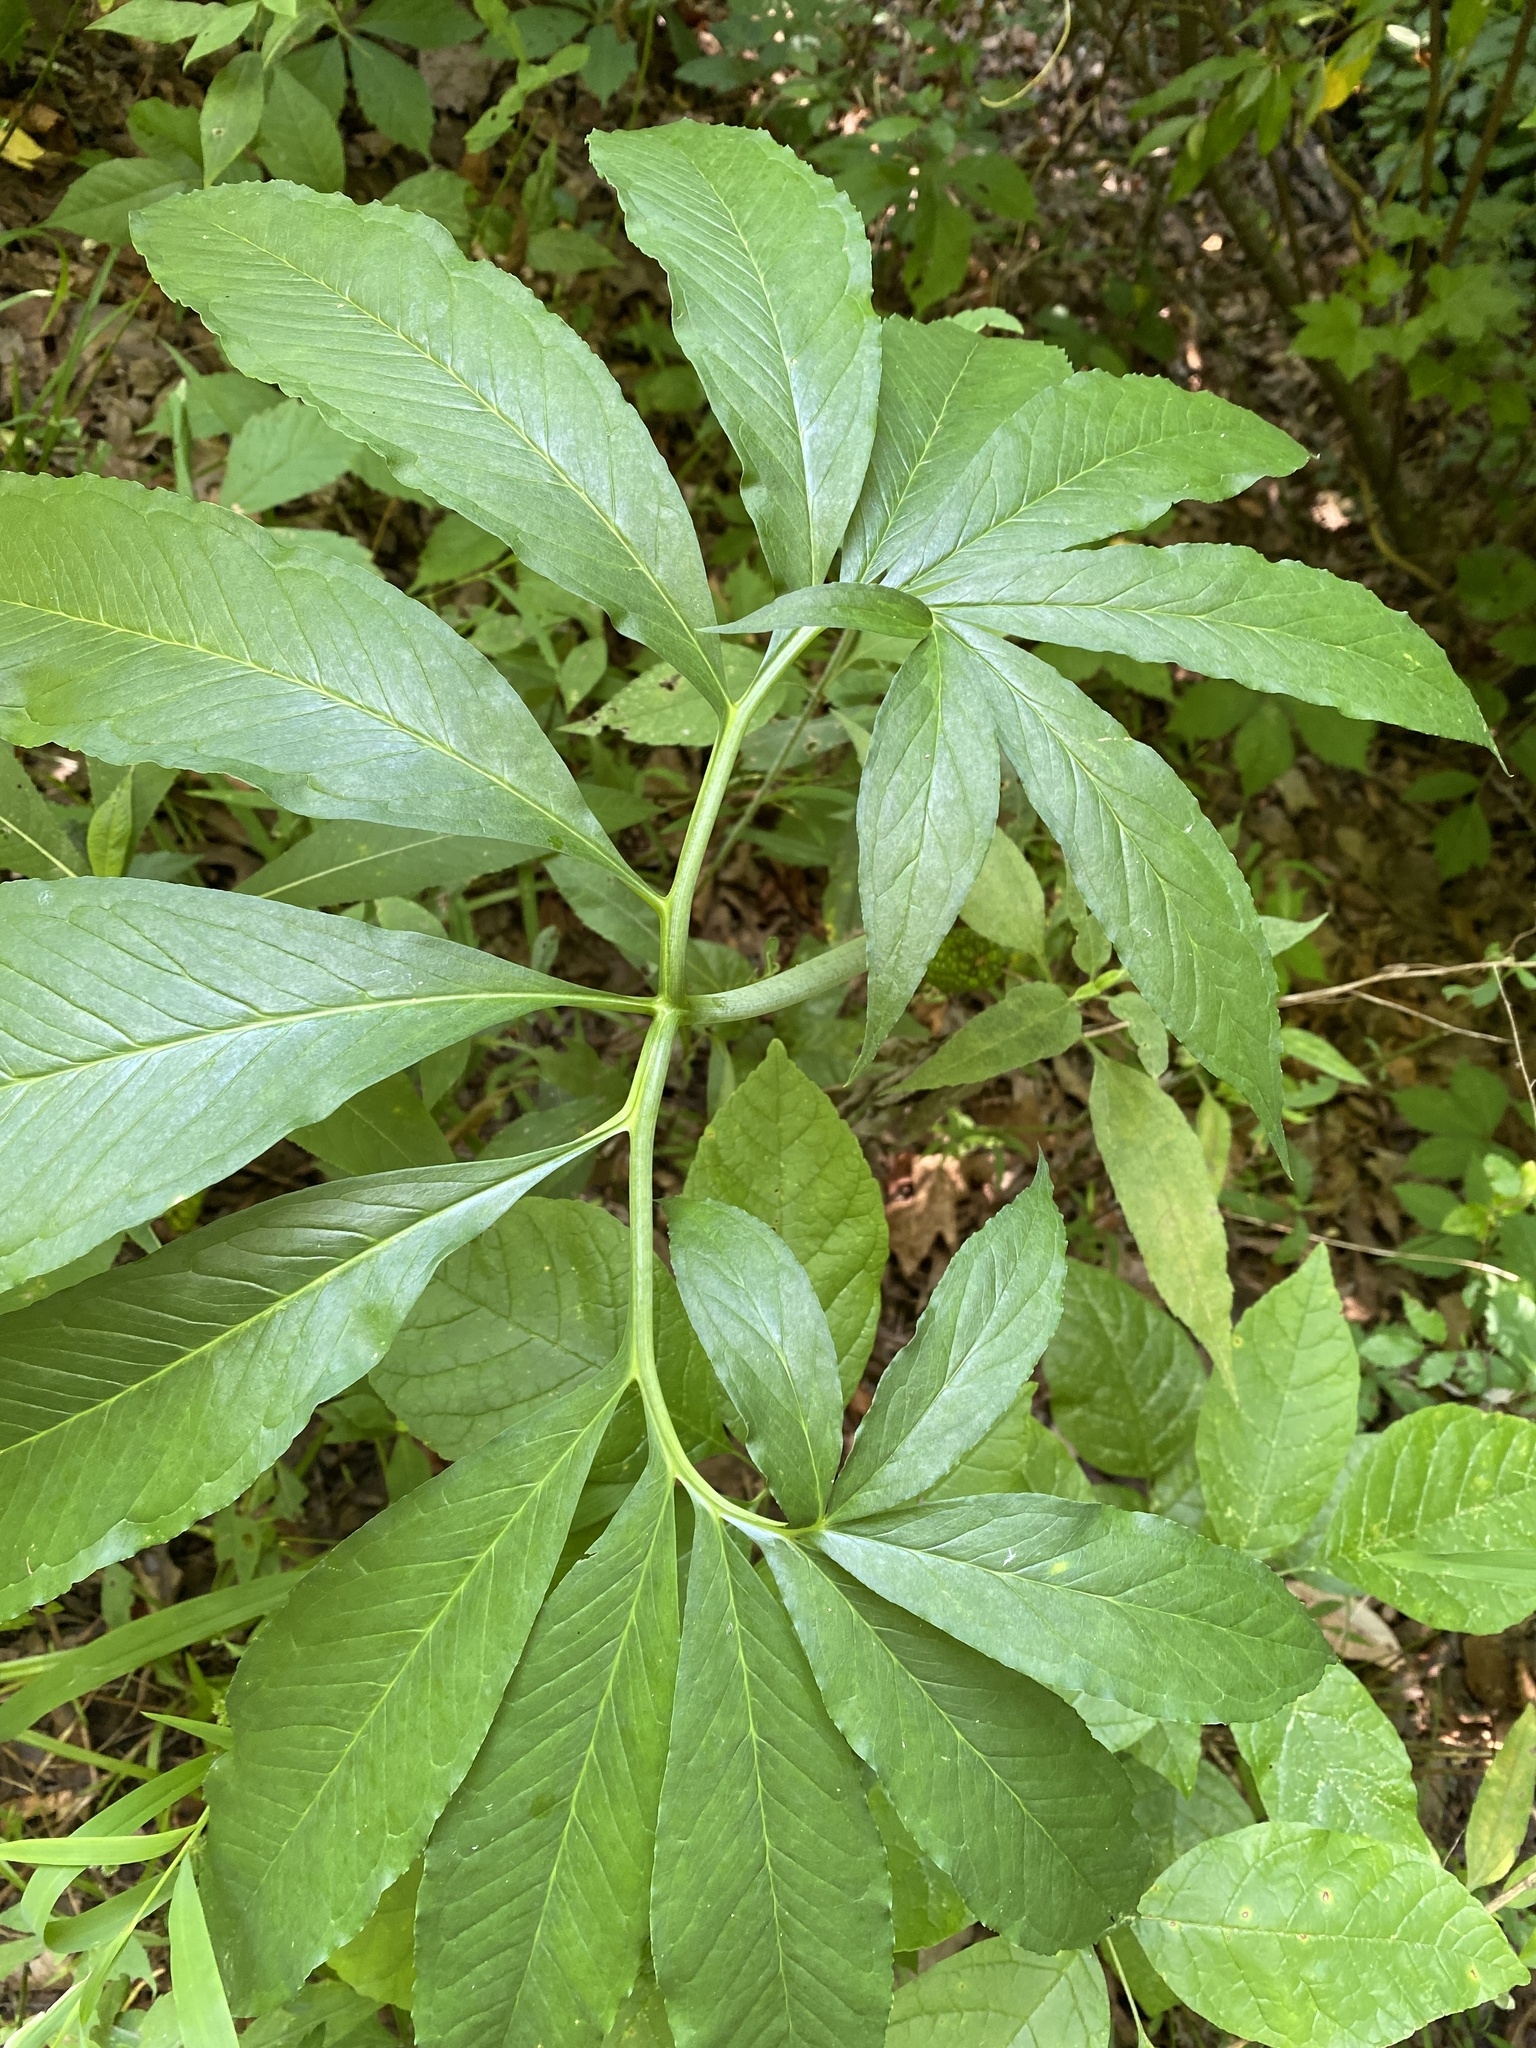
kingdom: Plantae
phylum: Tracheophyta
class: Liliopsida
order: Alismatales
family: Araceae
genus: Arisaema
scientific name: Arisaema dracontium
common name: Dragon-arum
